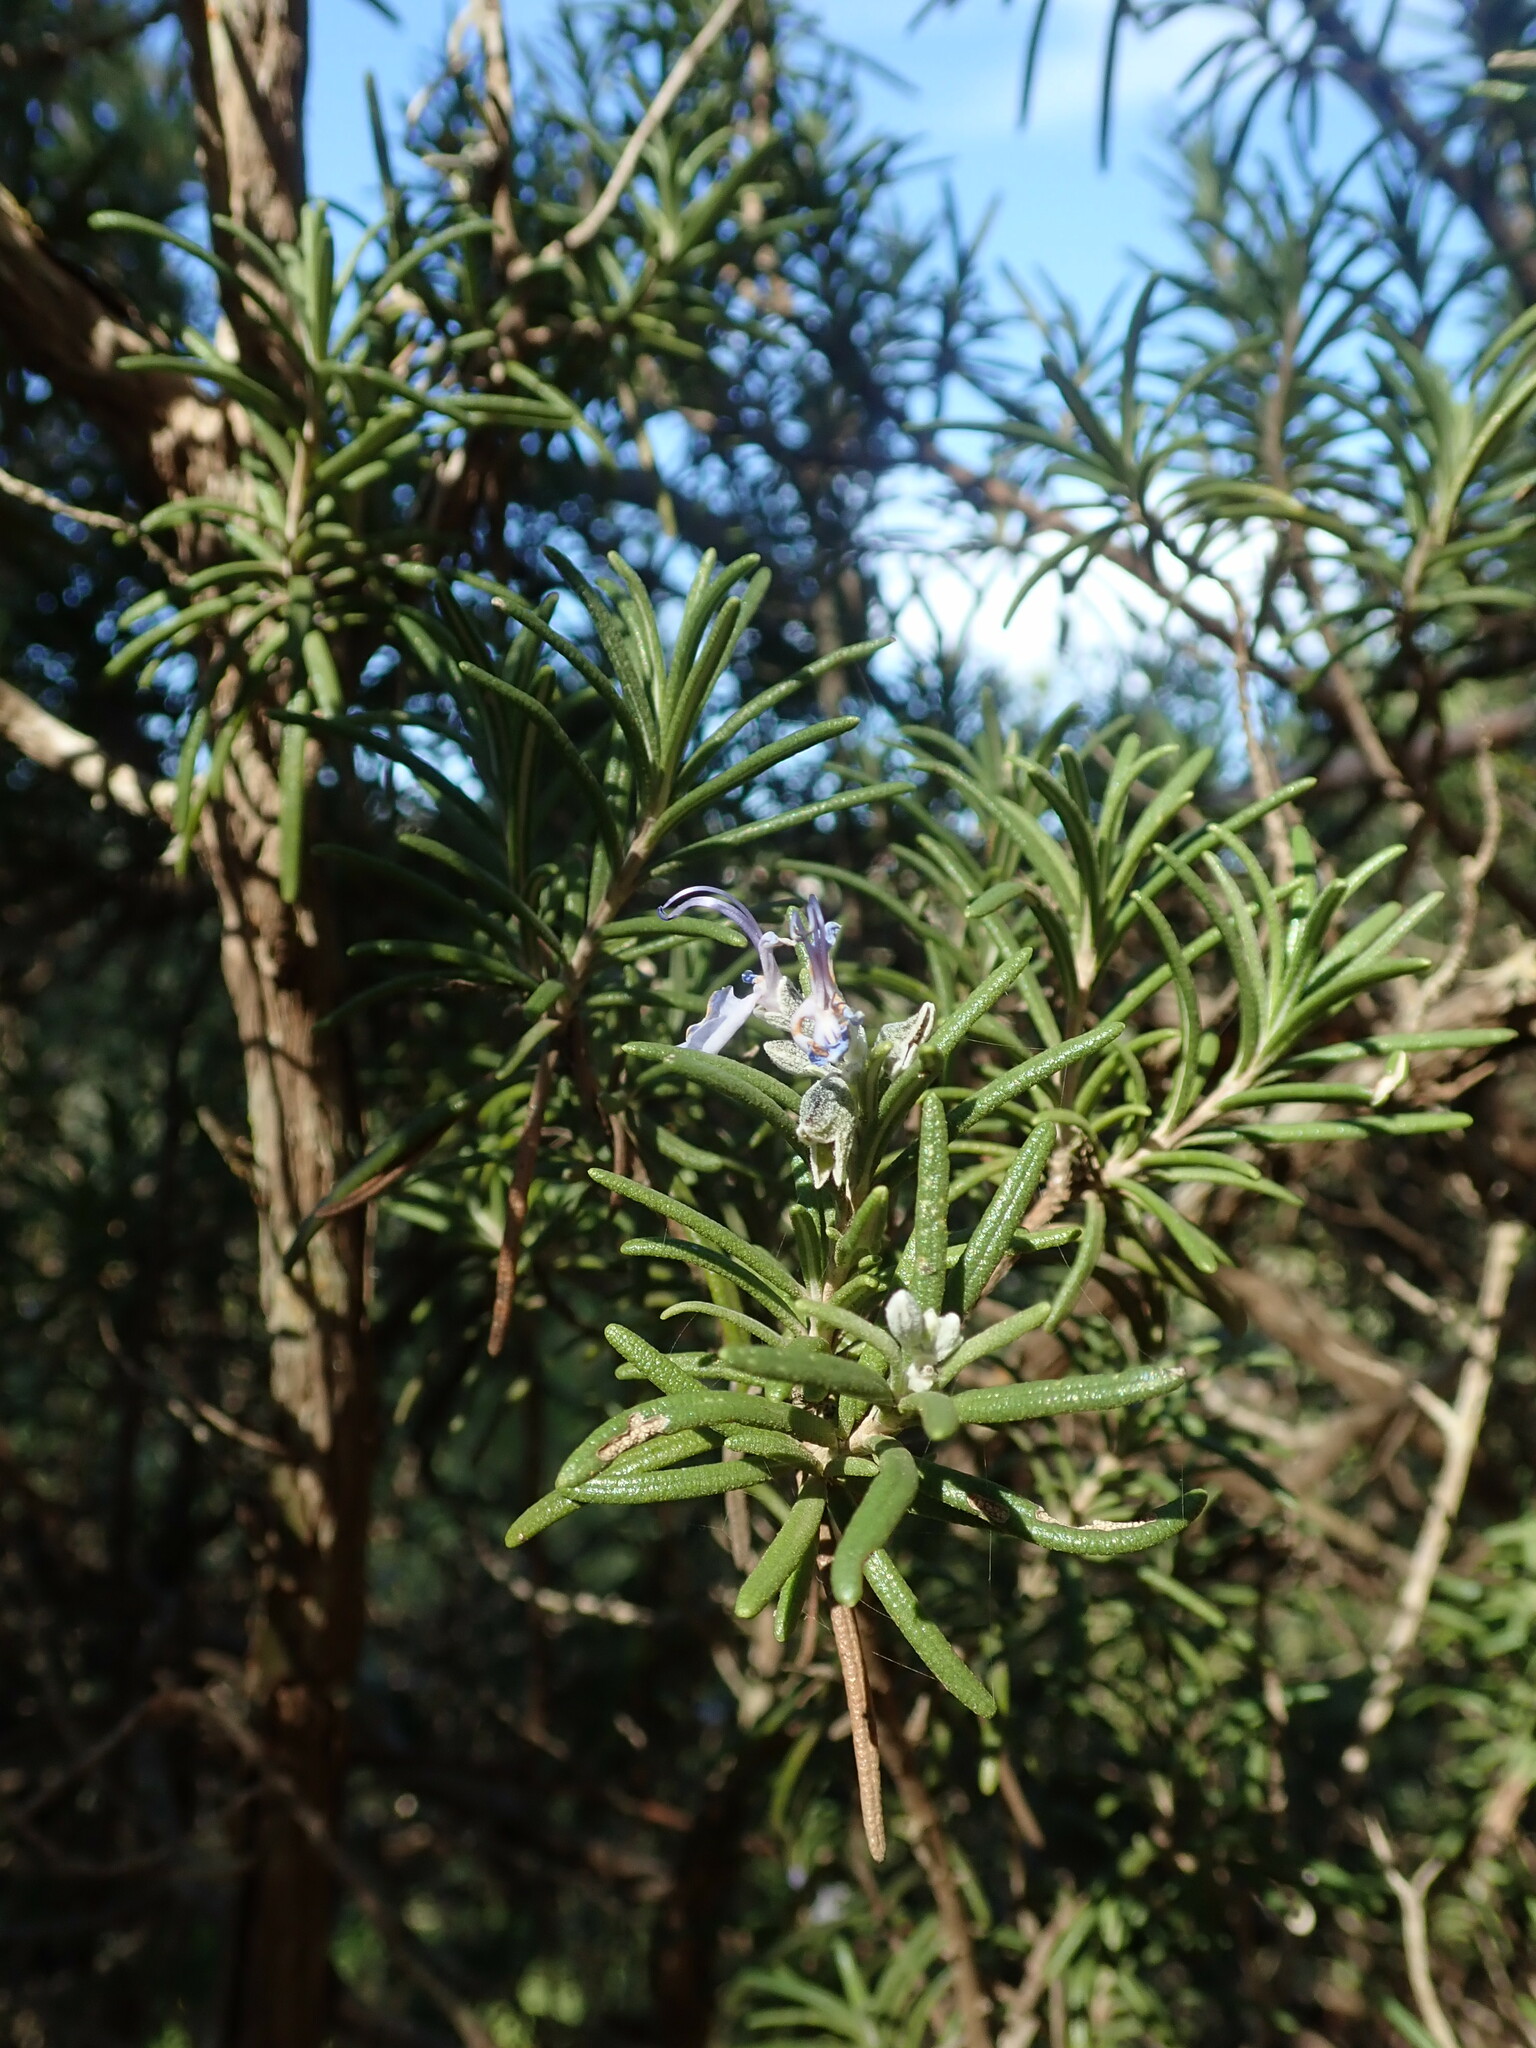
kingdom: Plantae
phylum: Tracheophyta
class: Magnoliopsida
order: Lamiales
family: Lamiaceae
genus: Salvia
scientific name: Salvia rosmarinus
